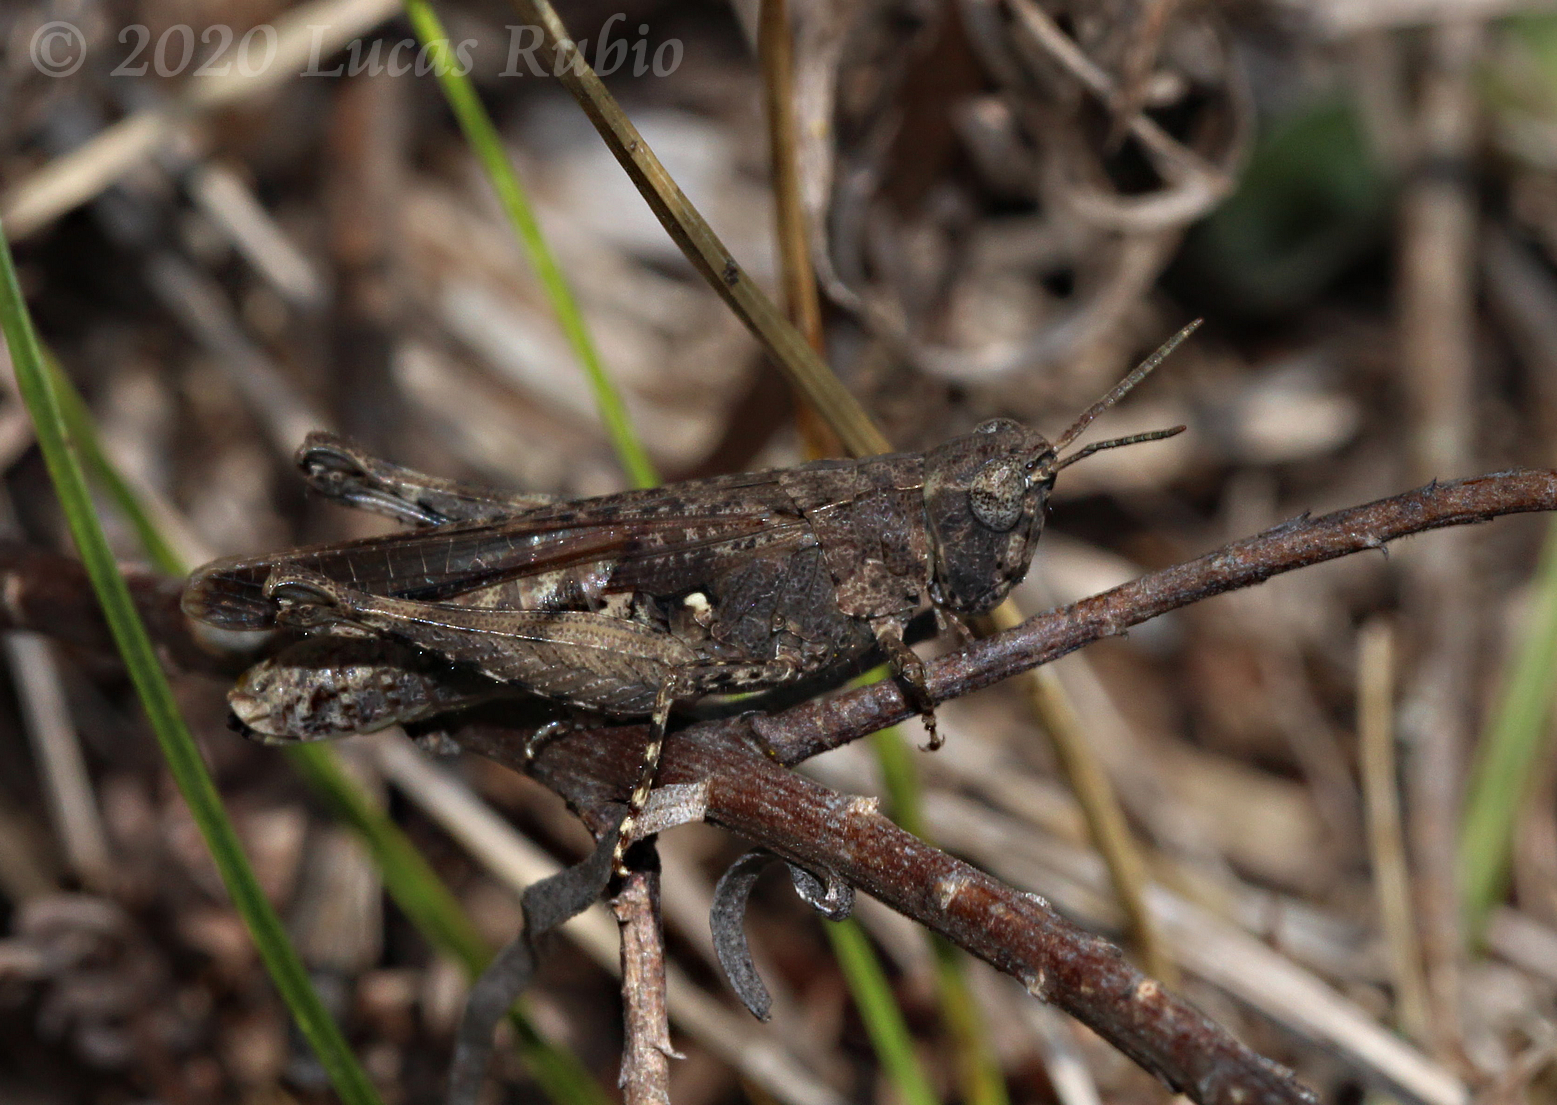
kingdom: Animalia
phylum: Arthropoda
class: Insecta
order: Orthoptera
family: Acrididae
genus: Orphulella
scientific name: Orphulella punctata
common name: Slant-faced grasshopper
